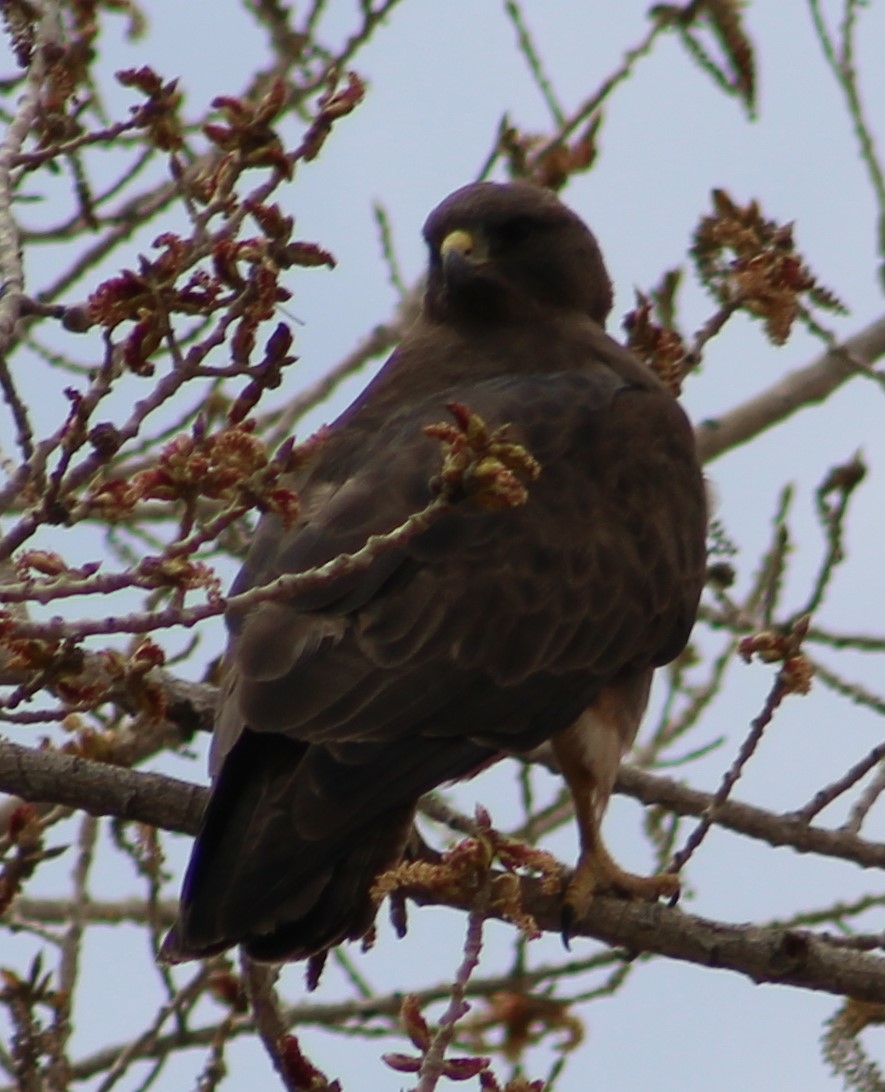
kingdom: Animalia
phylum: Chordata
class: Aves
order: Accipitriformes
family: Accipitridae
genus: Buteo
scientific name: Buteo swainsoni
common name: Swainson's hawk
